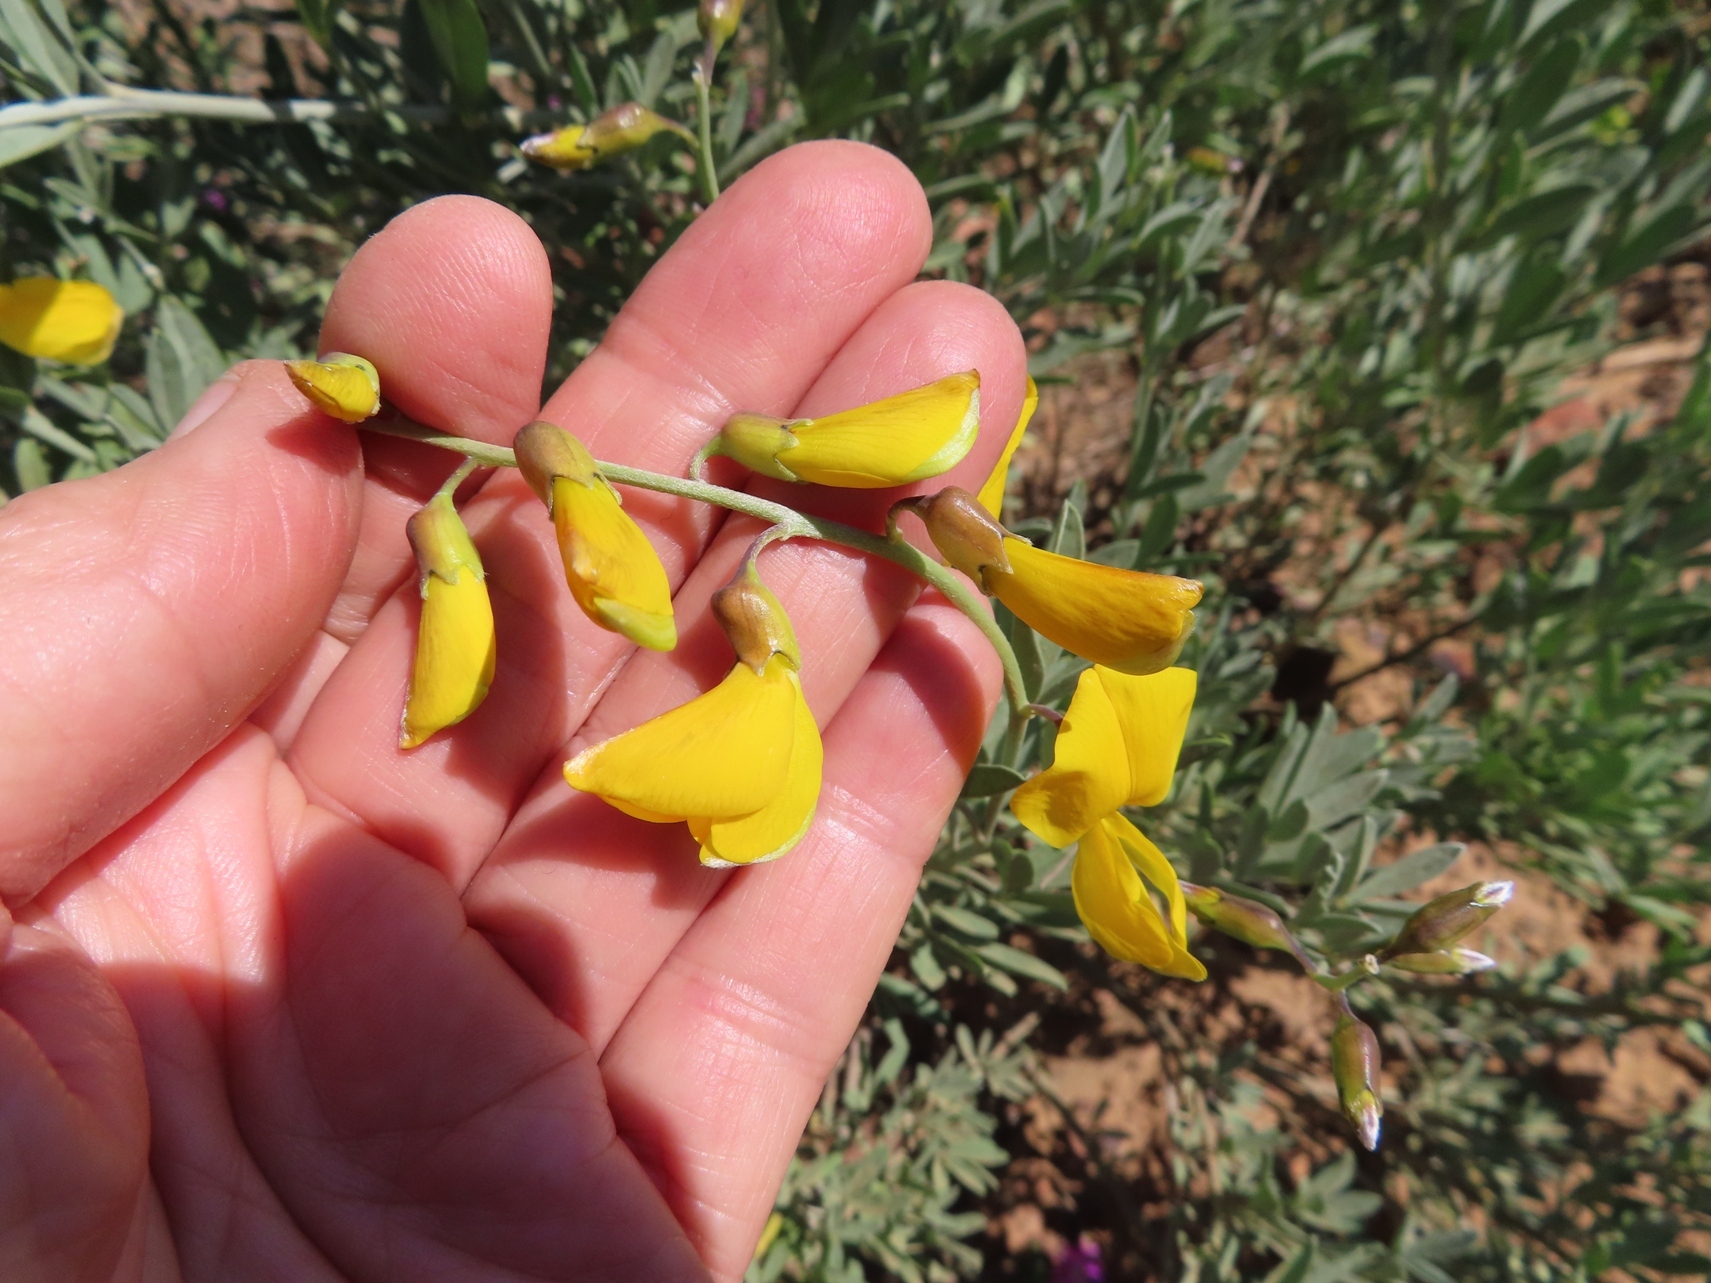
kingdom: Plantae
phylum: Tracheophyta
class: Magnoliopsida
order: Fabales
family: Fabaceae
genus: Calobota
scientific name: Calobota cytisoides
